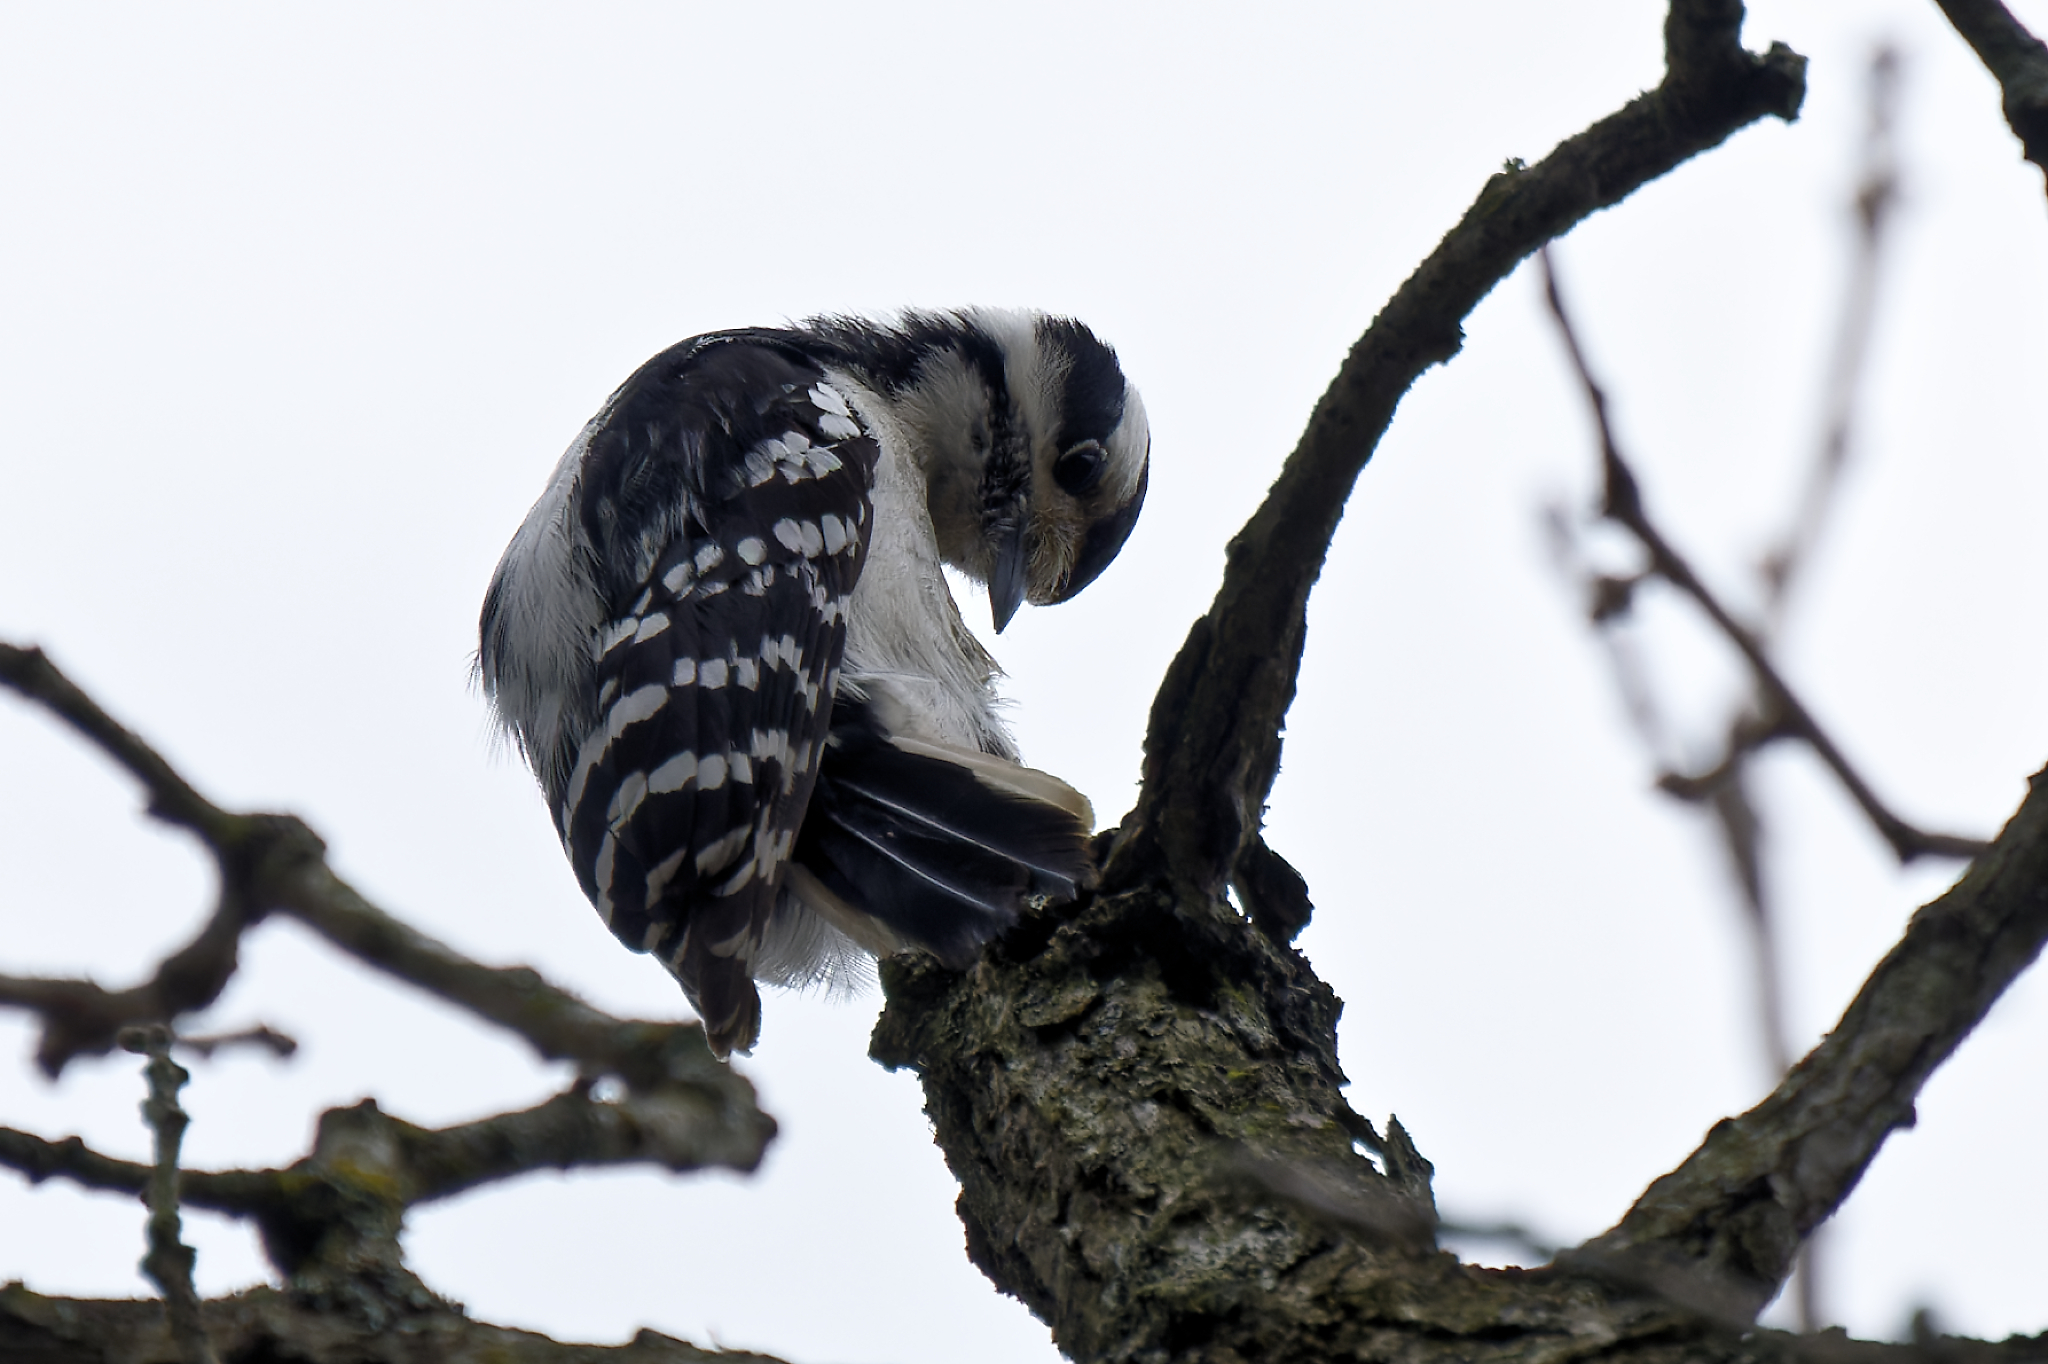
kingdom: Animalia
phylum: Chordata
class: Aves
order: Piciformes
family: Picidae
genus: Dryobates
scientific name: Dryobates pubescens
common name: Downy woodpecker
